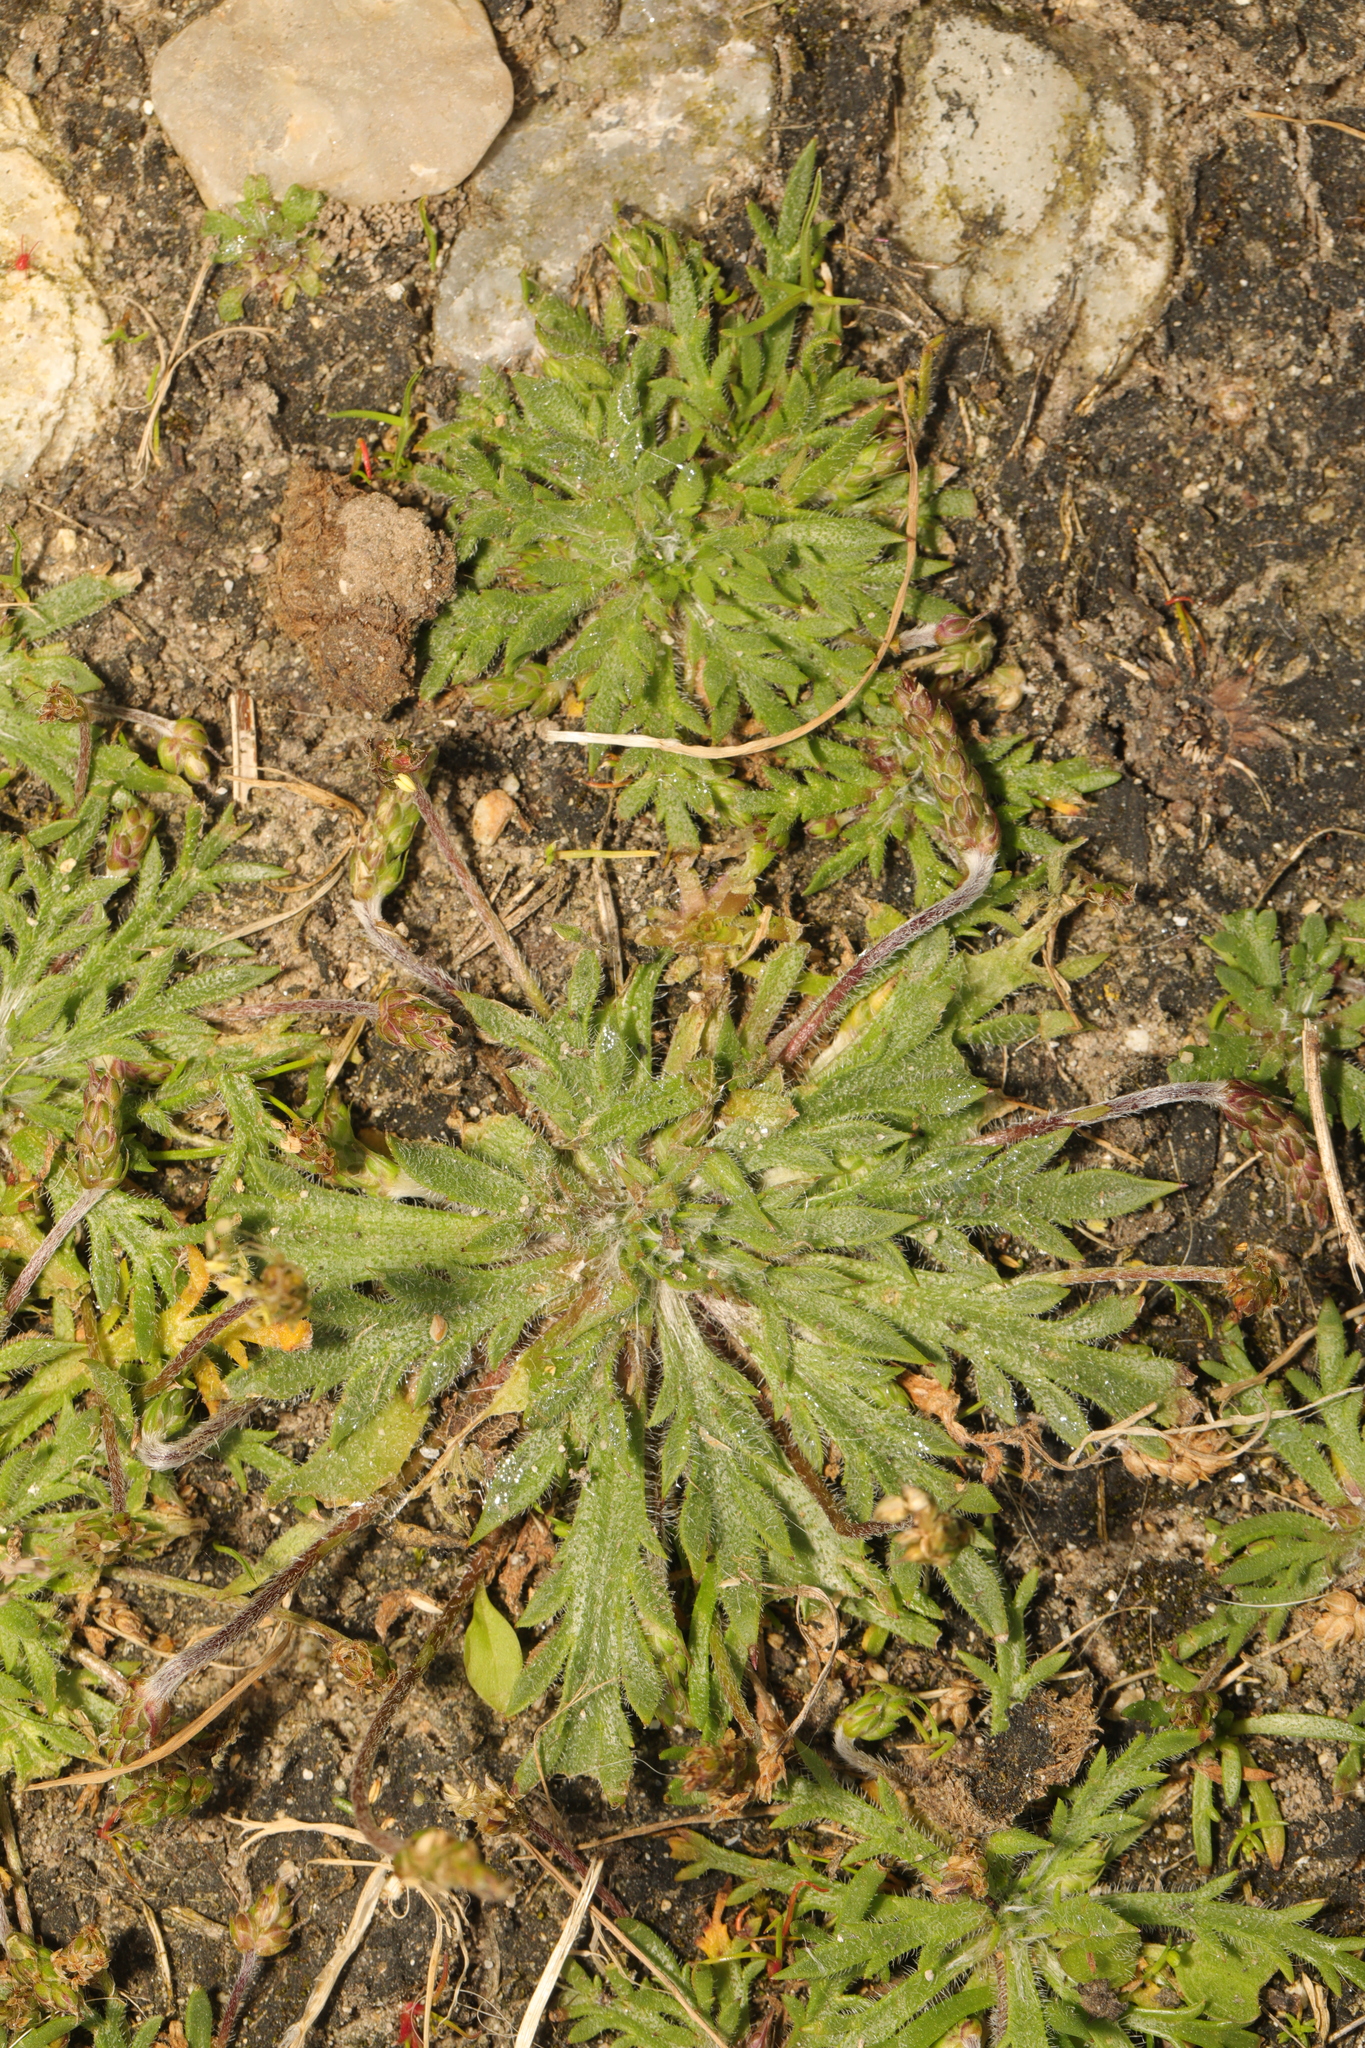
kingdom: Plantae
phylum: Tracheophyta
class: Magnoliopsida
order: Lamiales
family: Plantaginaceae
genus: Plantago
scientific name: Plantago coronopus
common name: Buck's-horn plantain
